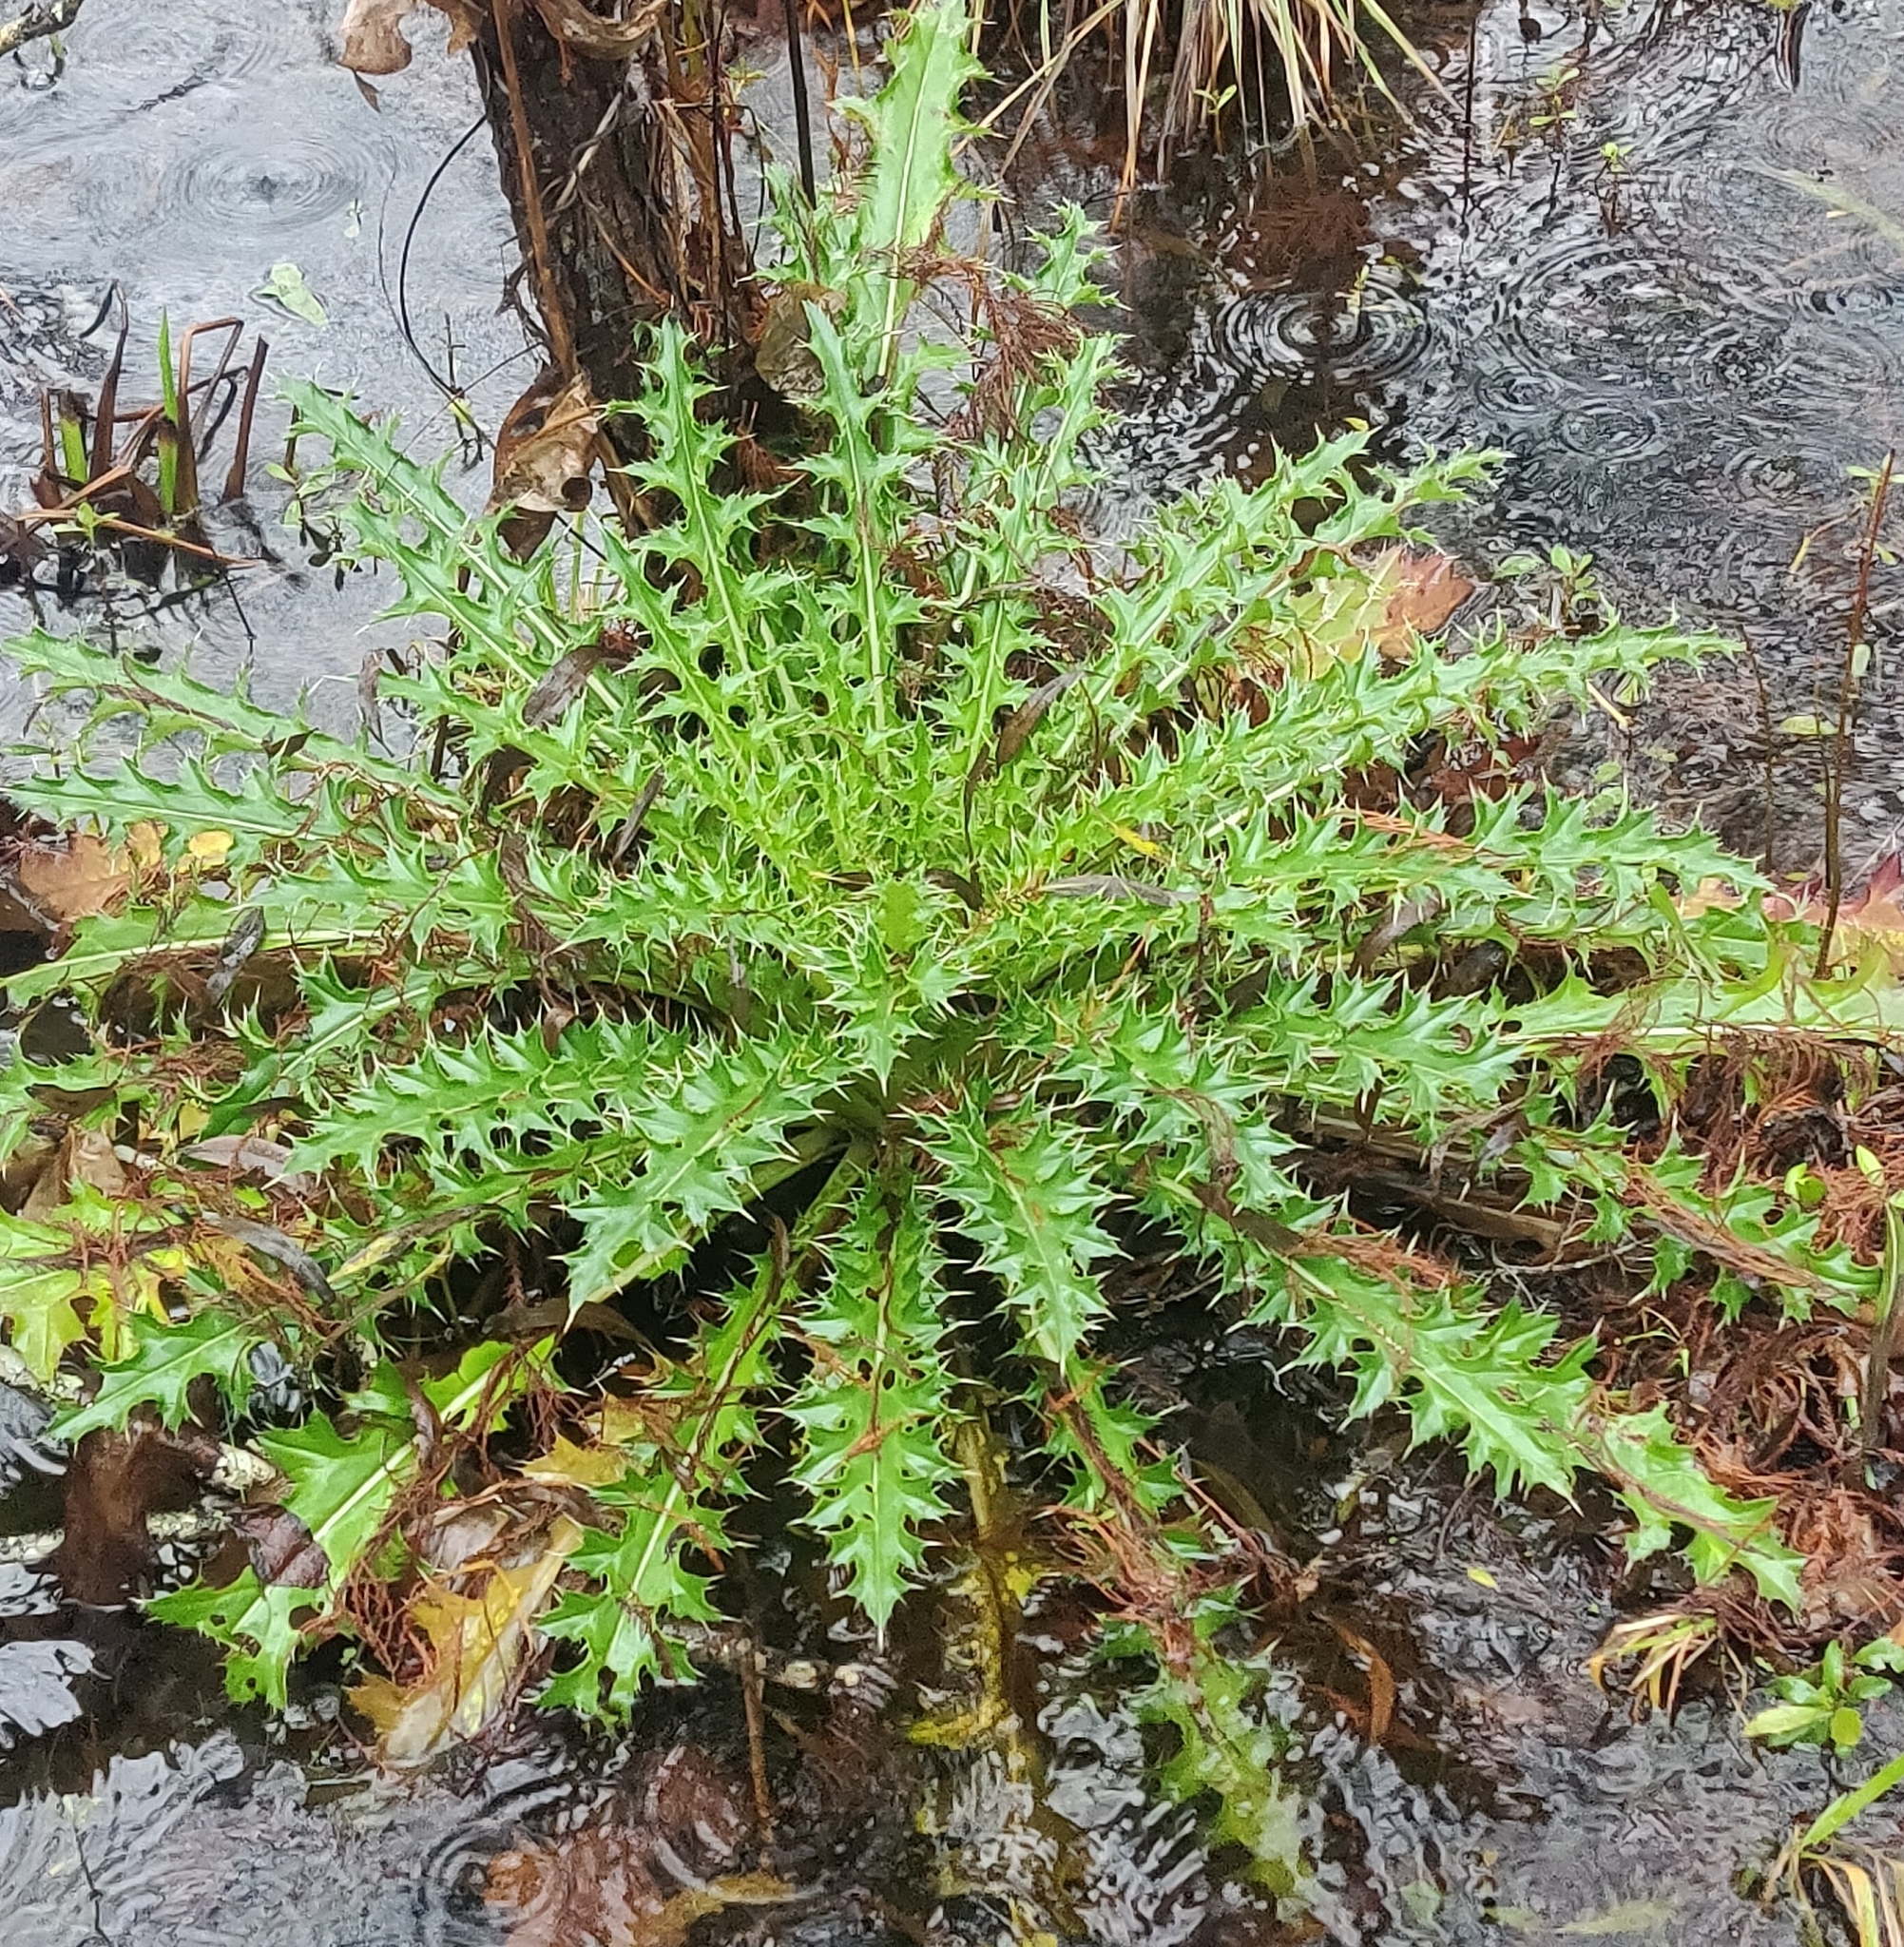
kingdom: Plantae
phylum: Tracheophyta
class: Magnoliopsida
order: Asterales
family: Asteraceae
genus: Cirsium
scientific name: Cirsium horridulum
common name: Bristly thistle
